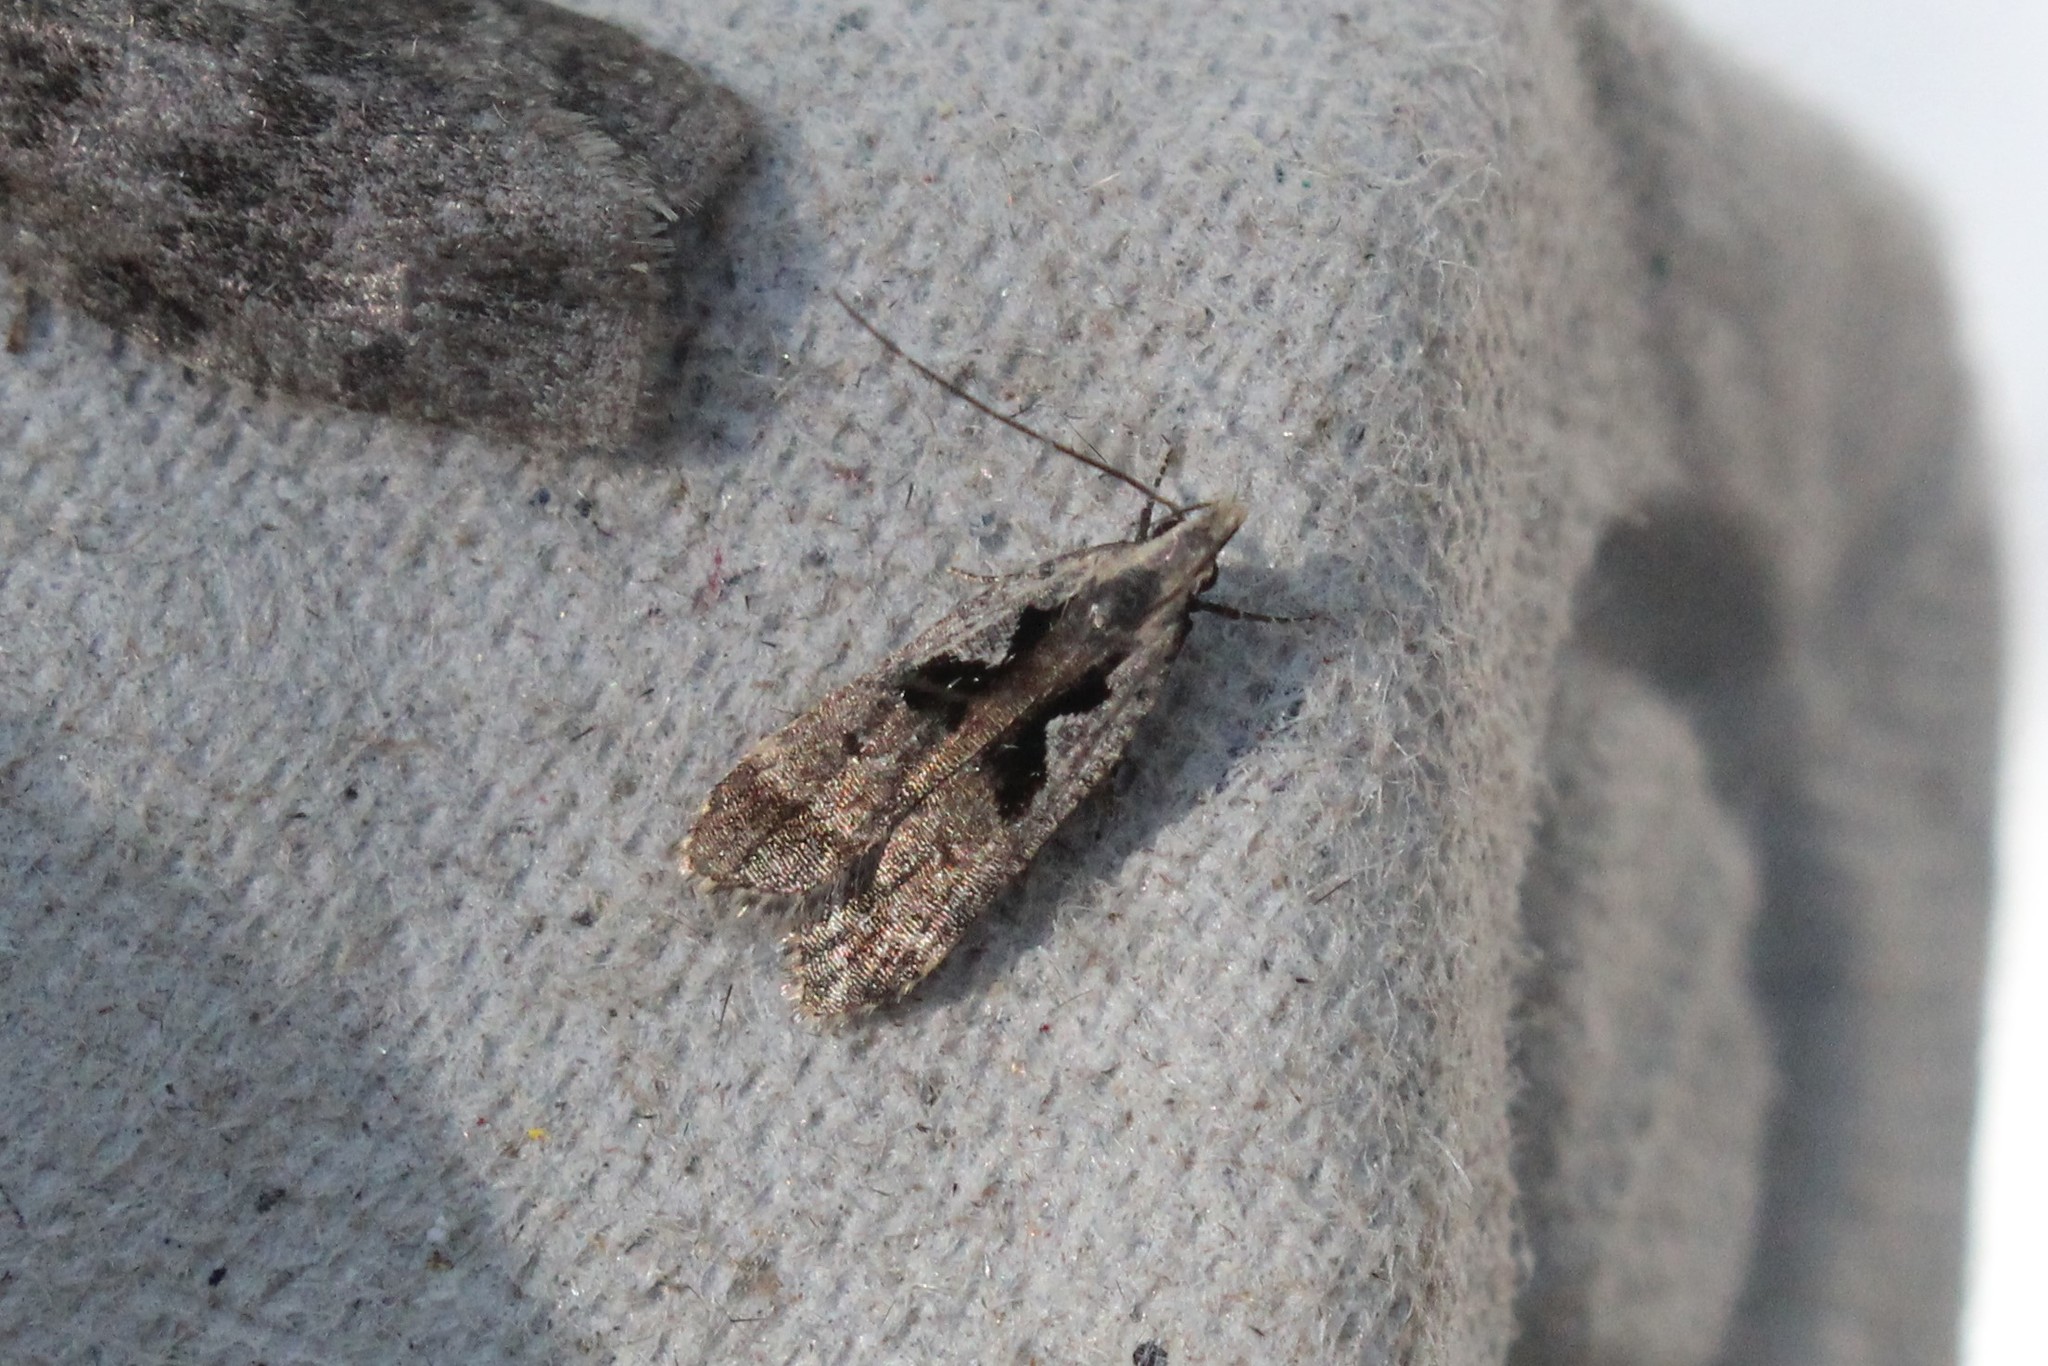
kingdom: Animalia
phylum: Arthropoda
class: Insecta
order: Lepidoptera
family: Gelechiidae
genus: Dichomeris
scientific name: Dichomeris bilobella
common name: Bilobed dichomeris moth
